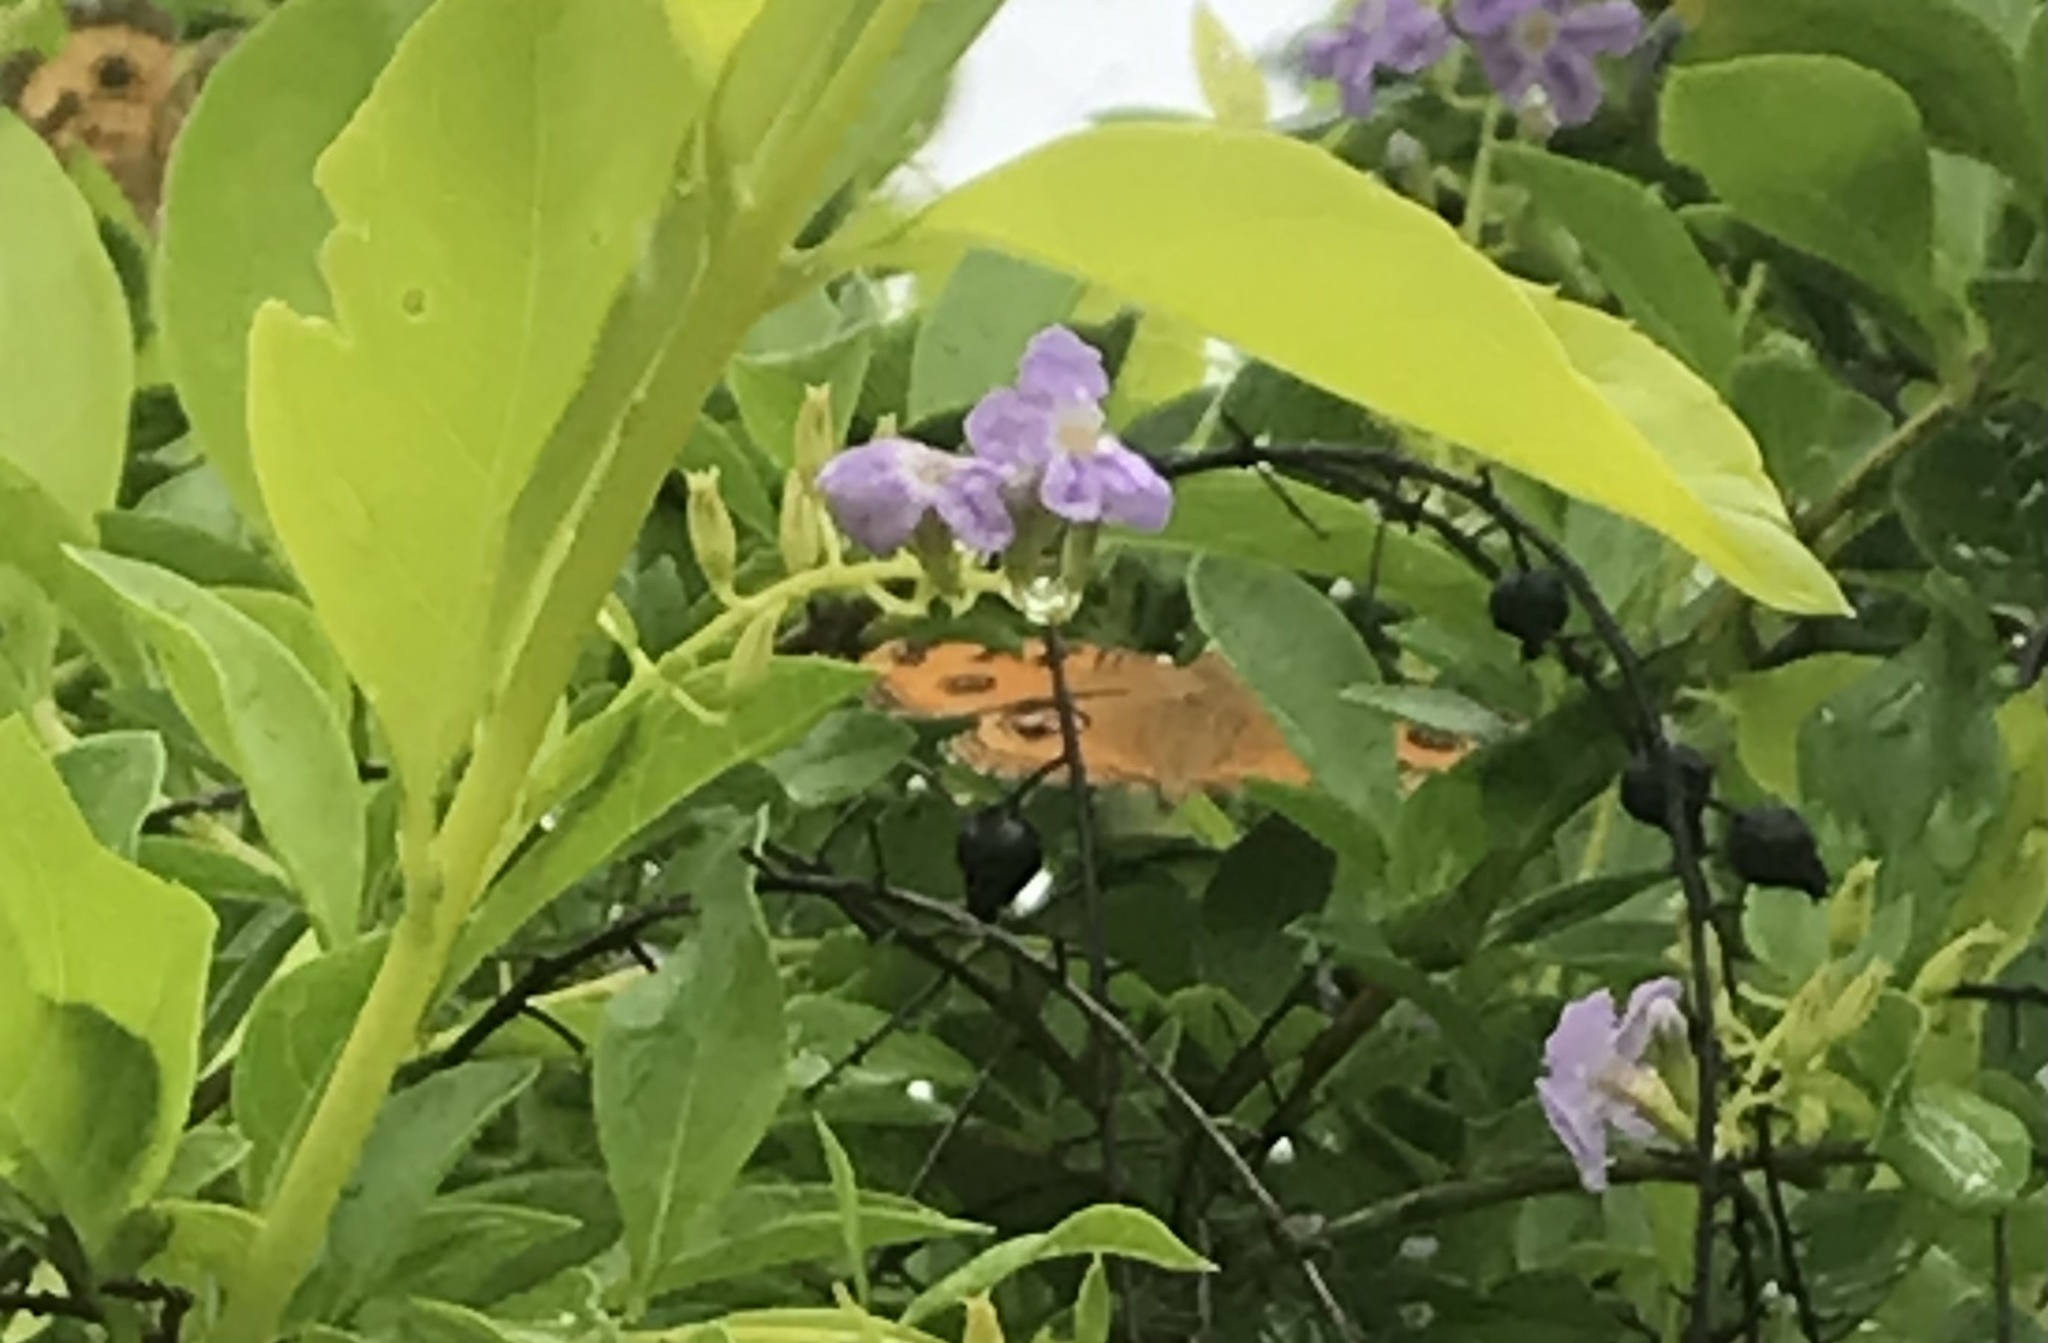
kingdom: Animalia
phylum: Arthropoda
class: Insecta
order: Lepidoptera
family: Nymphalidae
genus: Junonia
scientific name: Junonia almana
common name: Peacock pansy
